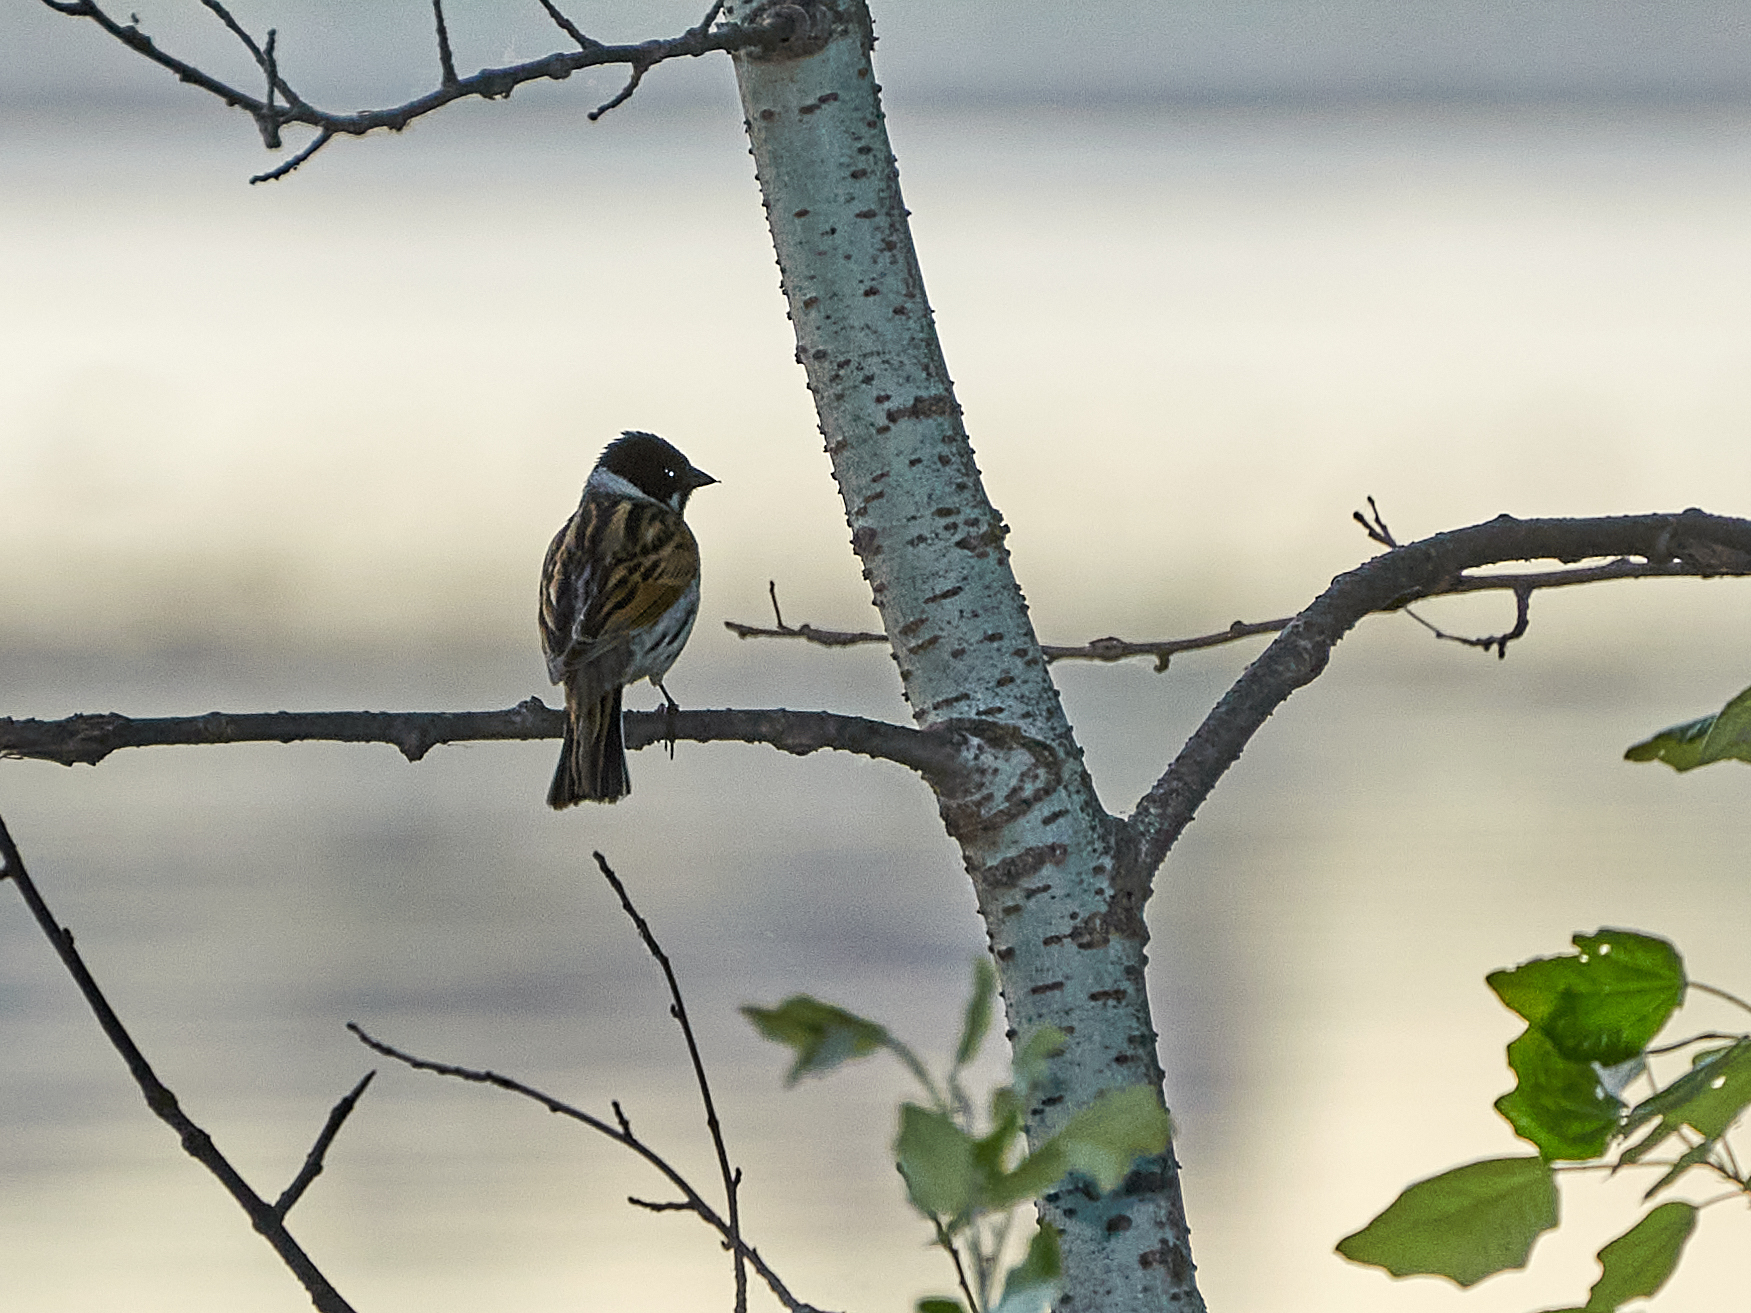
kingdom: Animalia
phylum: Chordata
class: Aves
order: Passeriformes
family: Emberizidae
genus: Emberiza
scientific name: Emberiza schoeniclus
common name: Reed bunting
